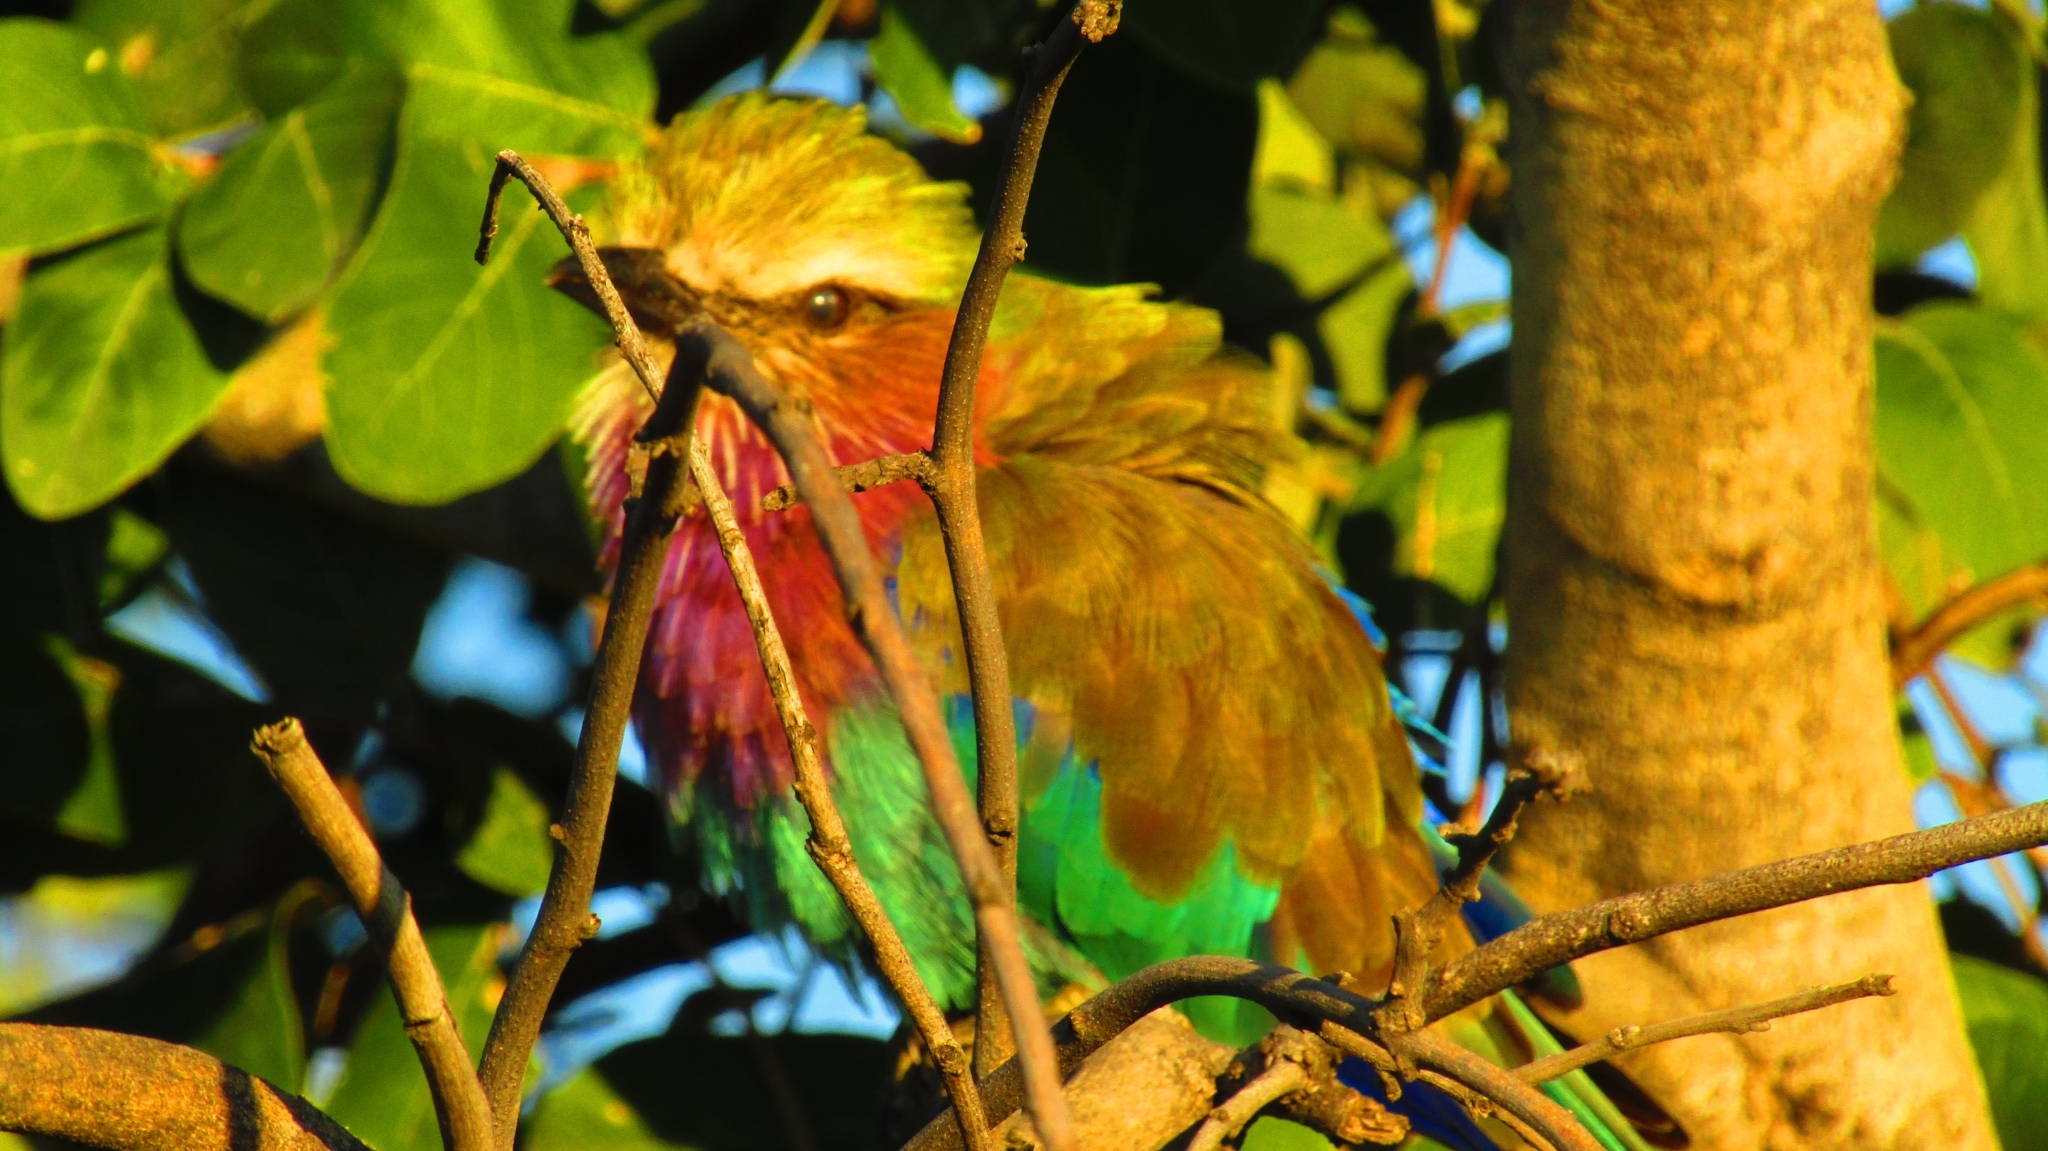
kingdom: Animalia
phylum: Chordata
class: Aves
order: Coraciiformes
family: Coraciidae
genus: Coracias
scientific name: Coracias caudatus
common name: Lilac-breasted roller
